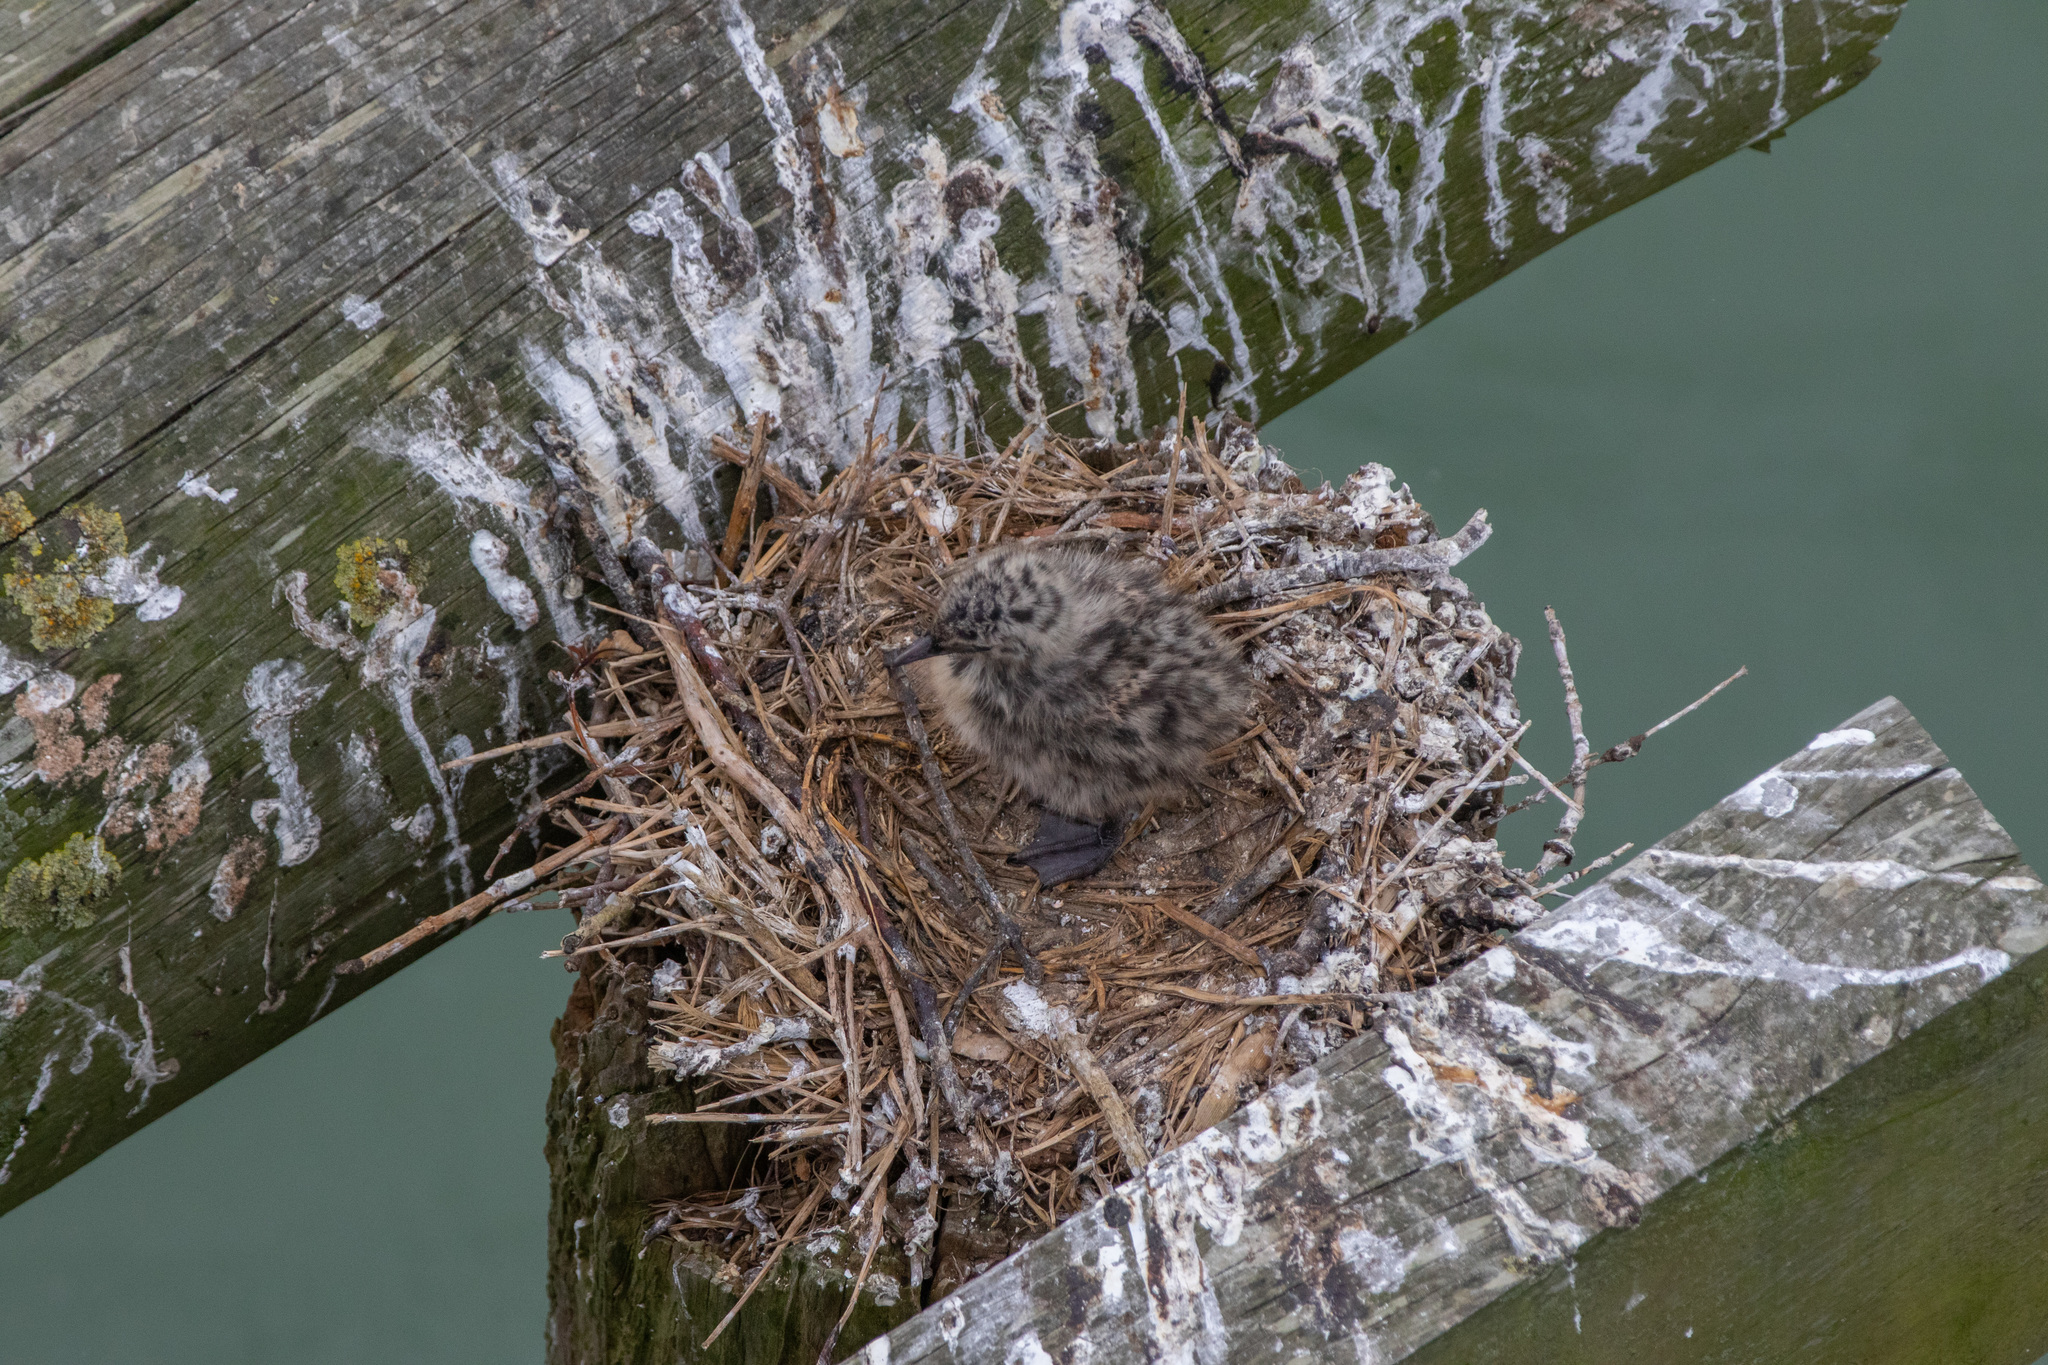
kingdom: Animalia
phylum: Chordata
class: Aves
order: Charadriiformes
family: Laridae
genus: Chroicocephalus
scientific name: Chroicocephalus novaehollandiae
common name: Silver gull
